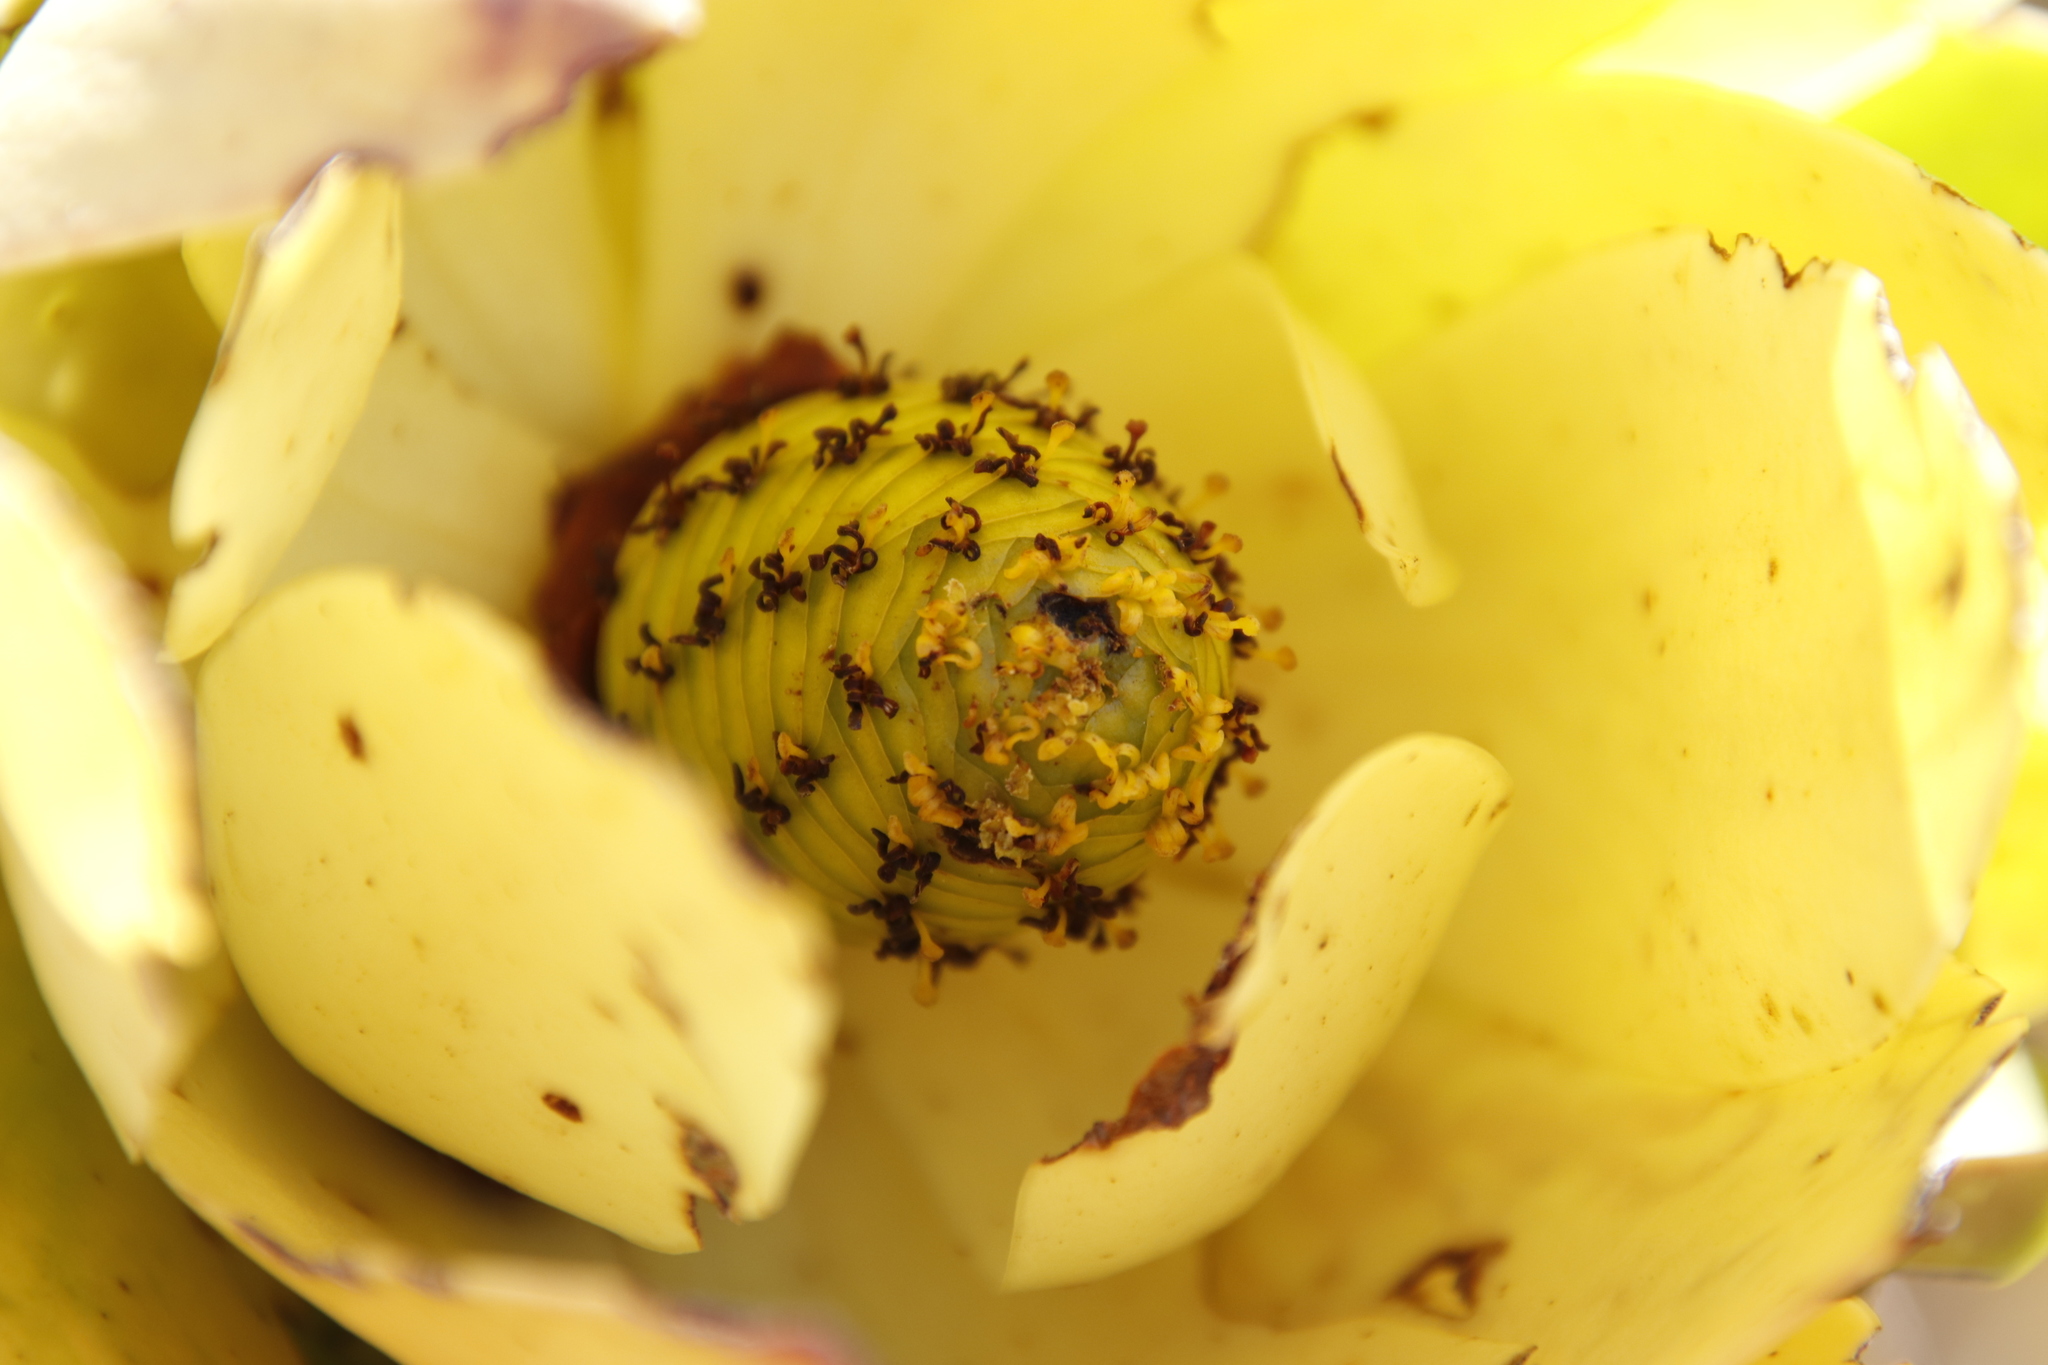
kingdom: Plantae
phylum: Tracheophyta
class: Magnoliopsida
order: Proteales
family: Proteaceae
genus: Leucadendron
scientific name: Leucadendron laureolum
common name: Golden sunshinebush
